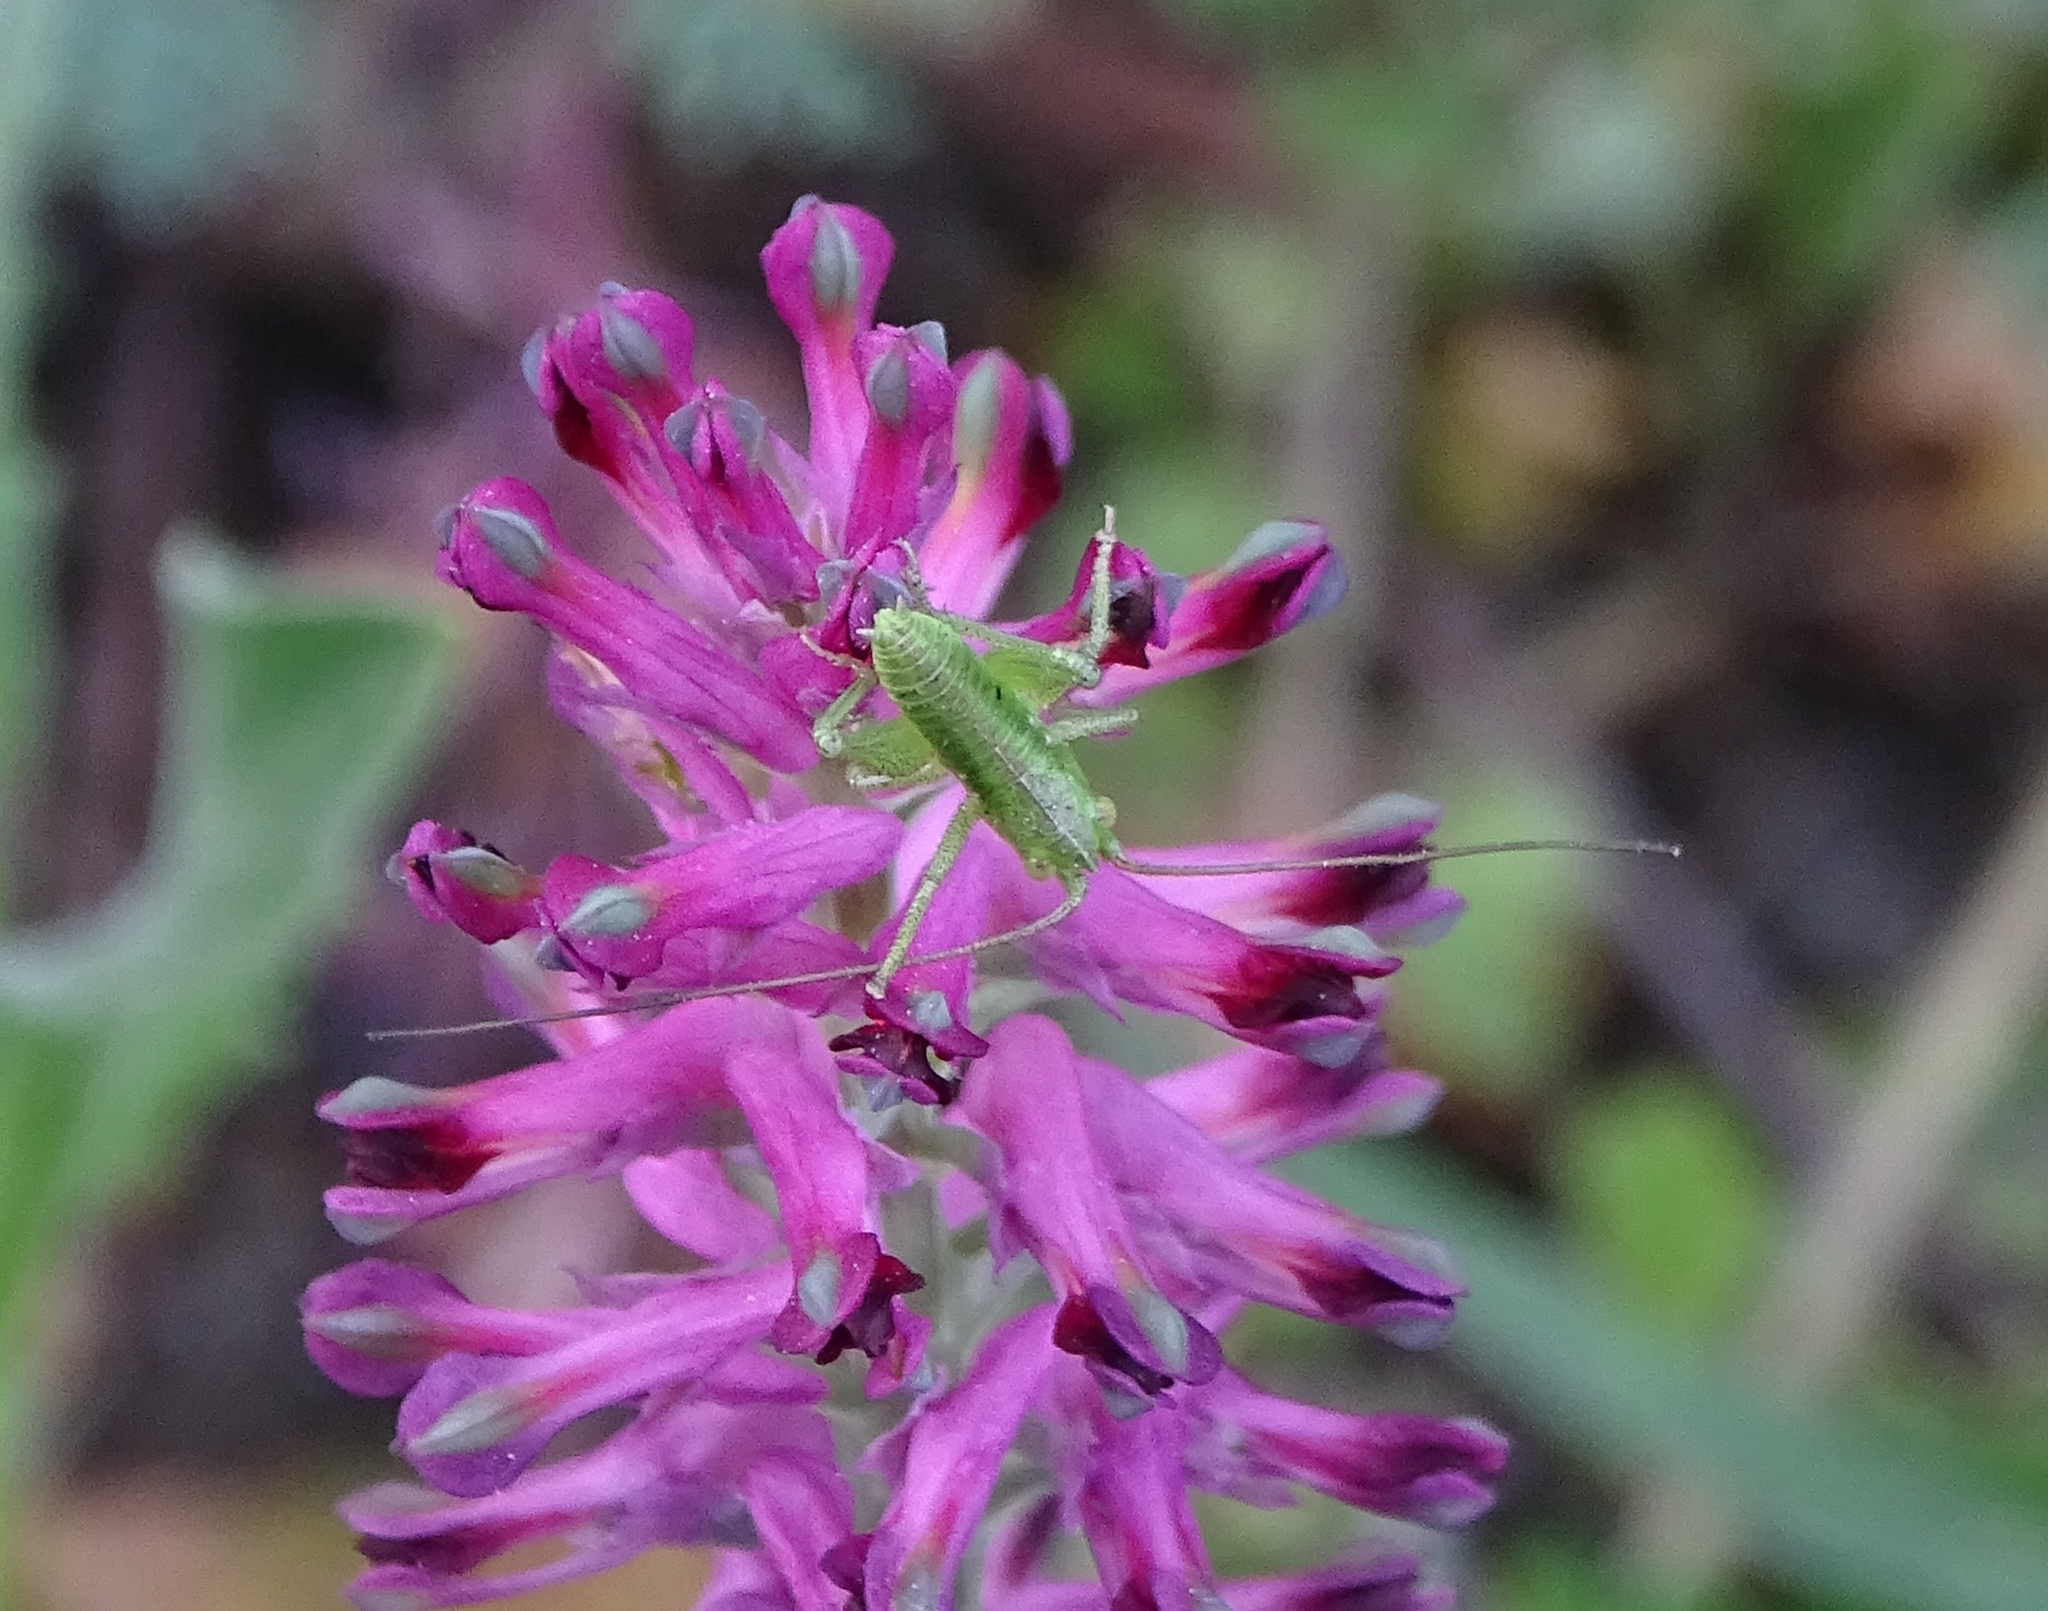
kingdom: Animalia
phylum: Arthropoda
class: Insecta
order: Orthoptera
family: Tettigoniidae
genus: Tettigonia
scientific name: Tettigonia viridissima
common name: Great green bush-cricket
